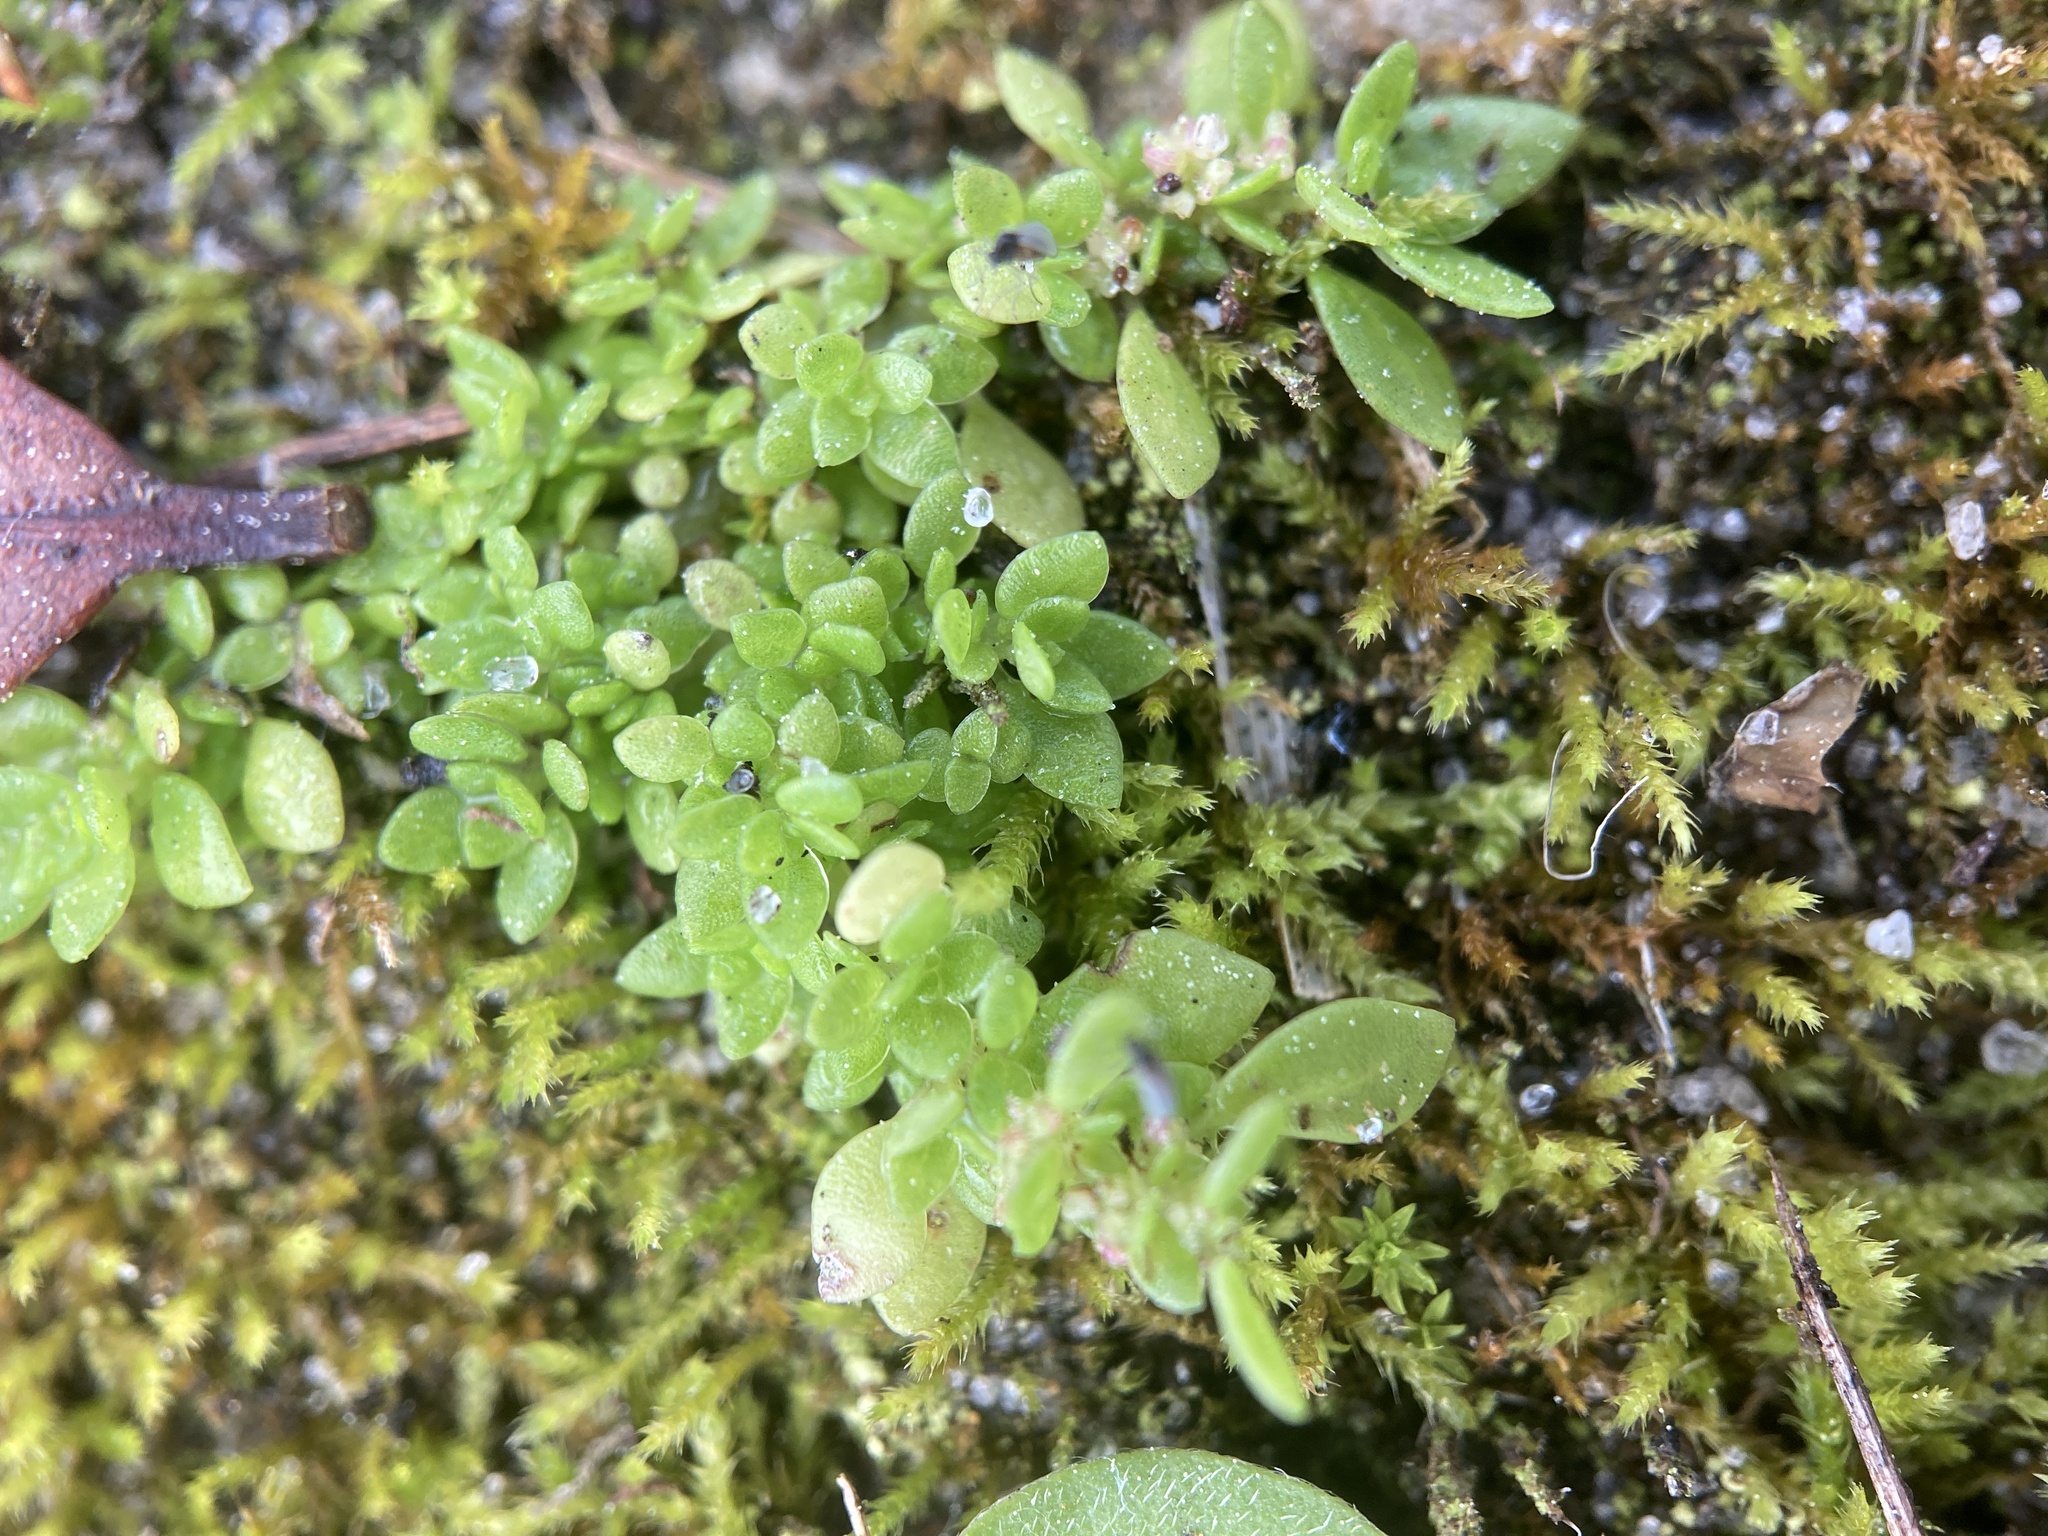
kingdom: Plantae
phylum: Tracheophyta
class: Magnoliopsida
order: Rosales
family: Urticaceae
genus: Pilea
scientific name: Pilea microphylla
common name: Artillery-plant
